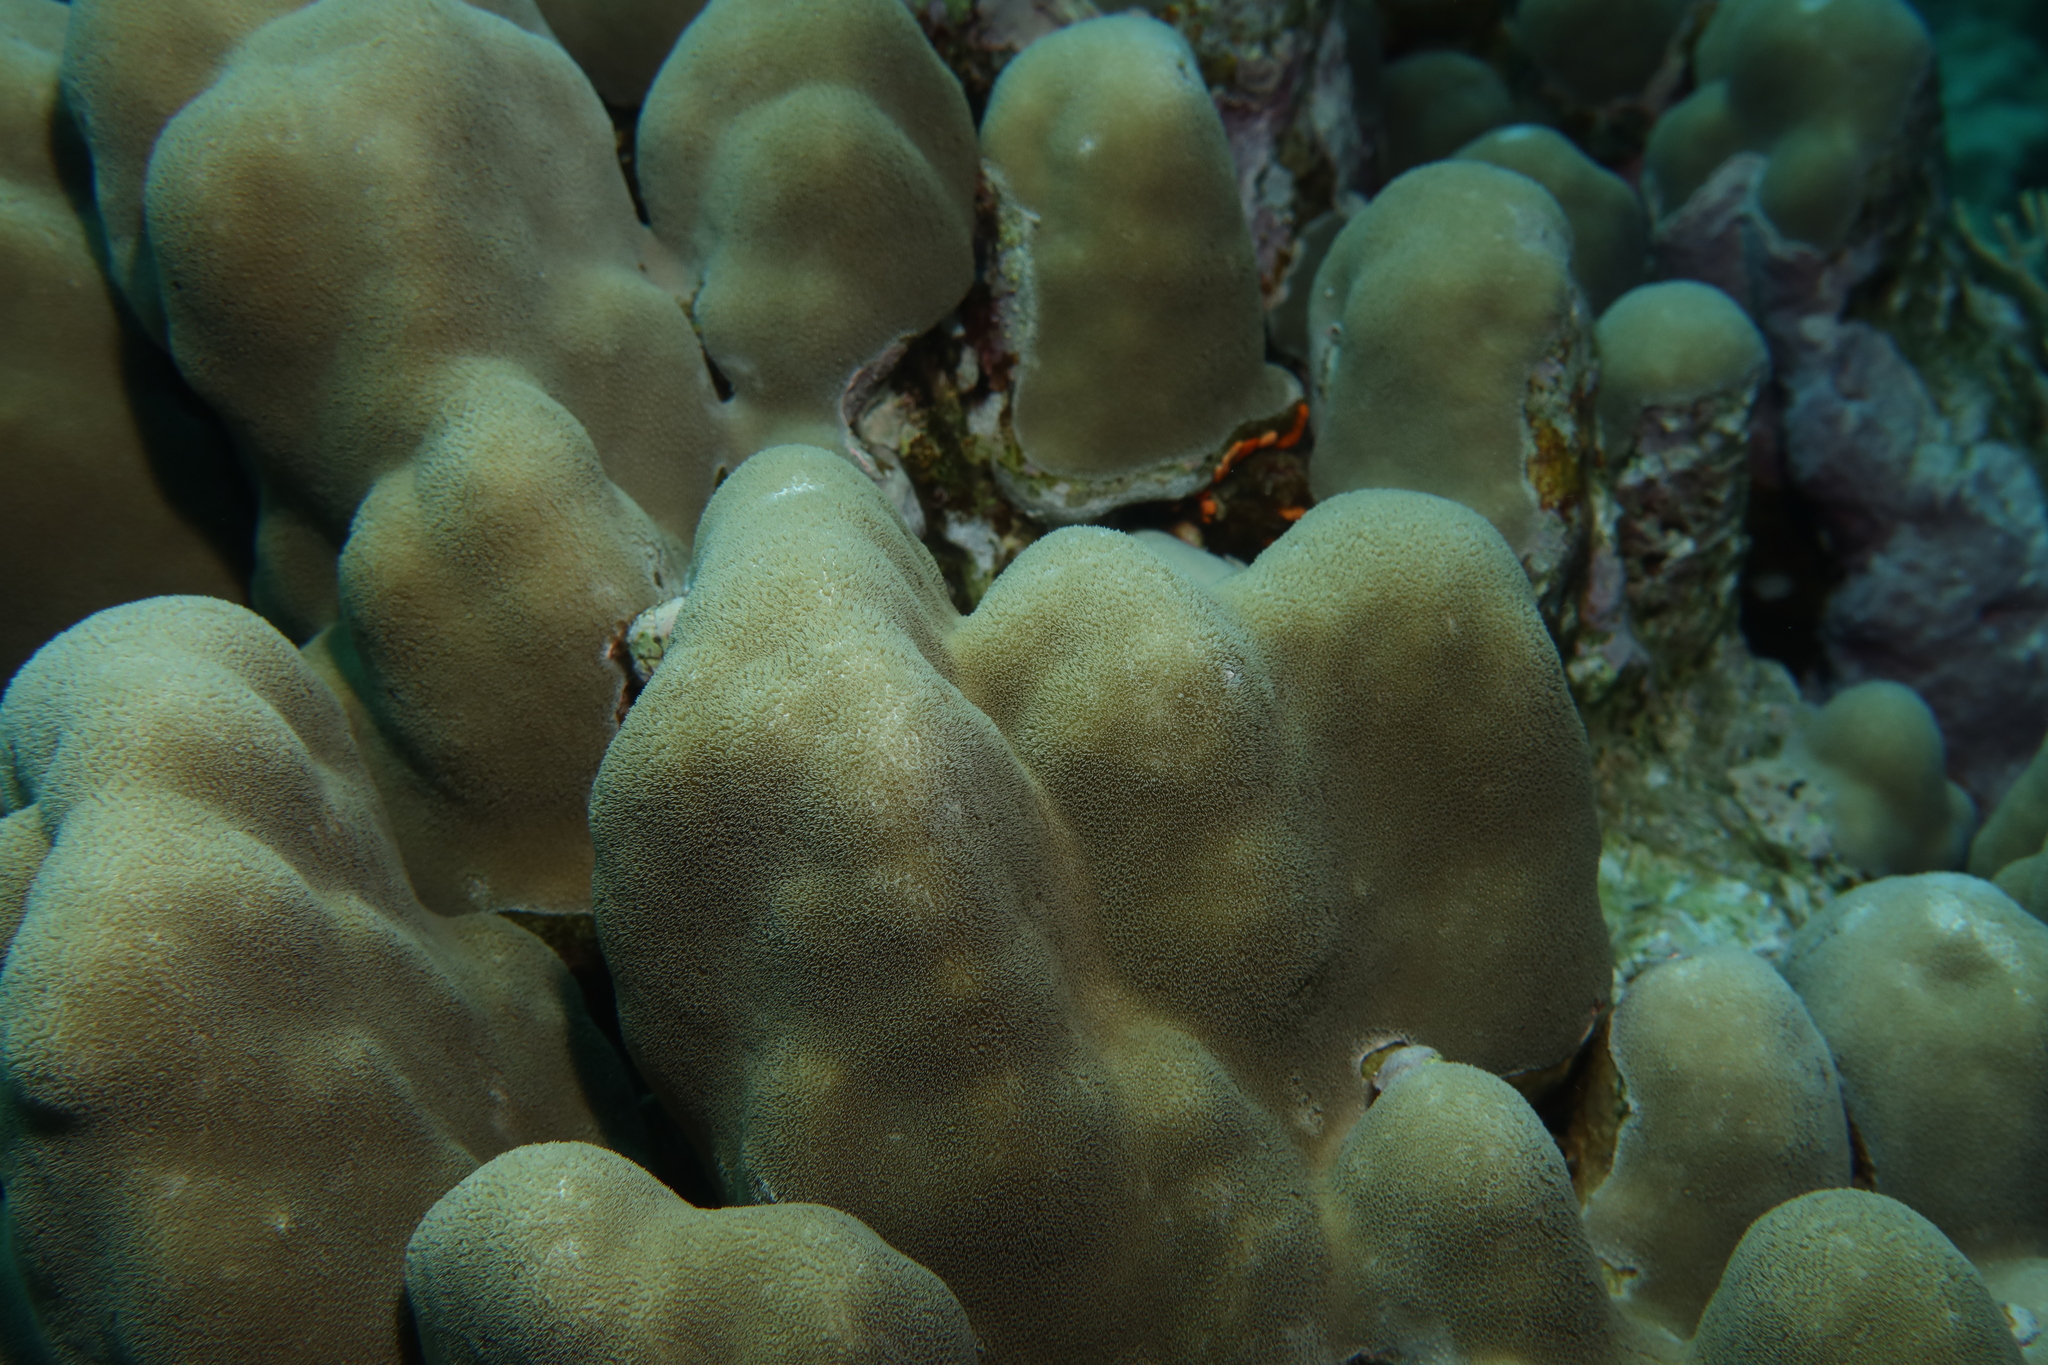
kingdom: Animalia
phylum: Cnidaria
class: Anthozoa
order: Scleractinia
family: Poritidae
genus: Porites
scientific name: Porites nodifera
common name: Hump coral
